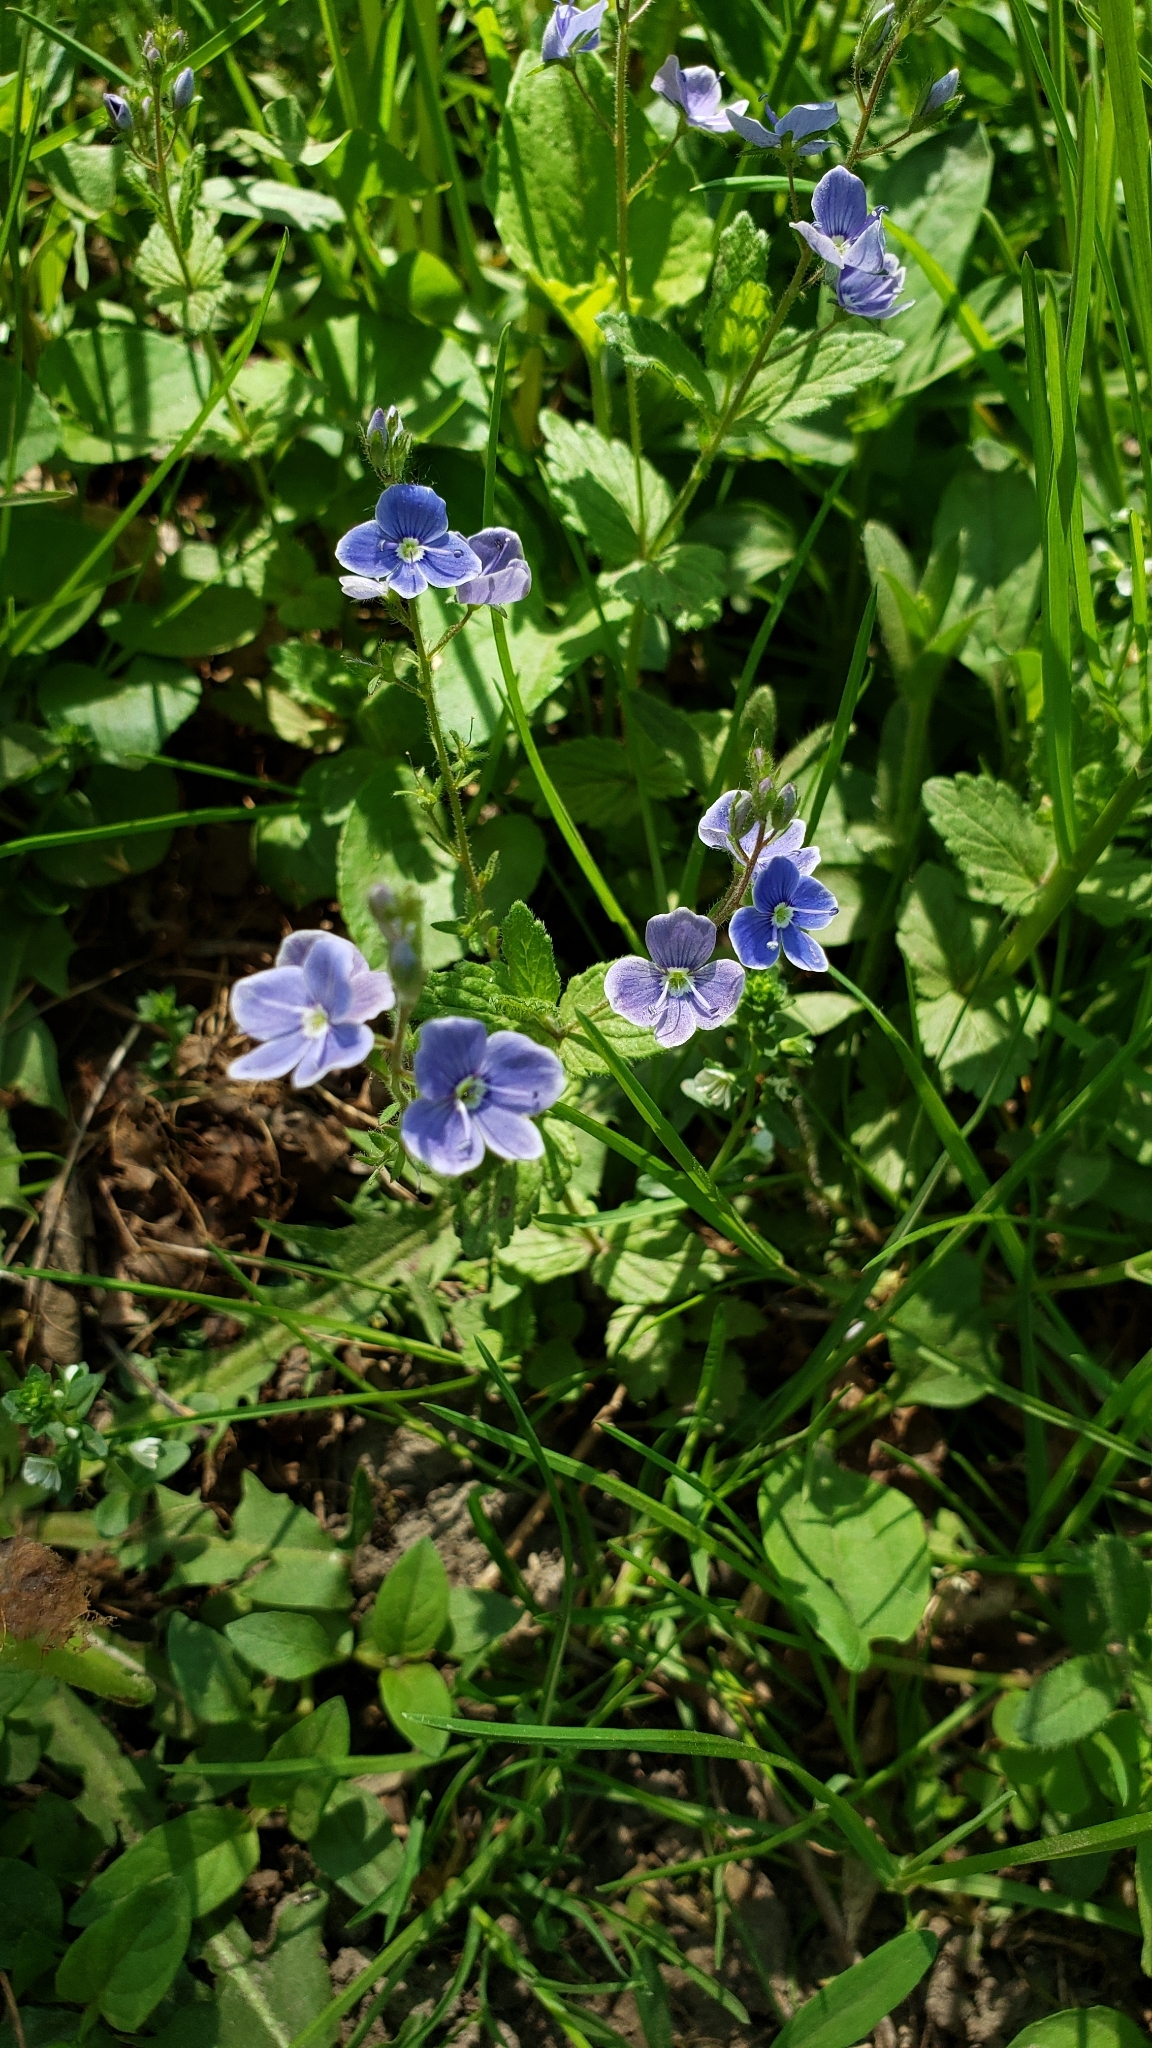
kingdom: Plantae
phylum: Tracheophyta
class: Magnoliopsida
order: Lamiales
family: Plantaginaceae
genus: Veronica
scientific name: Veronica chamaedrys
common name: Germander speedwell
